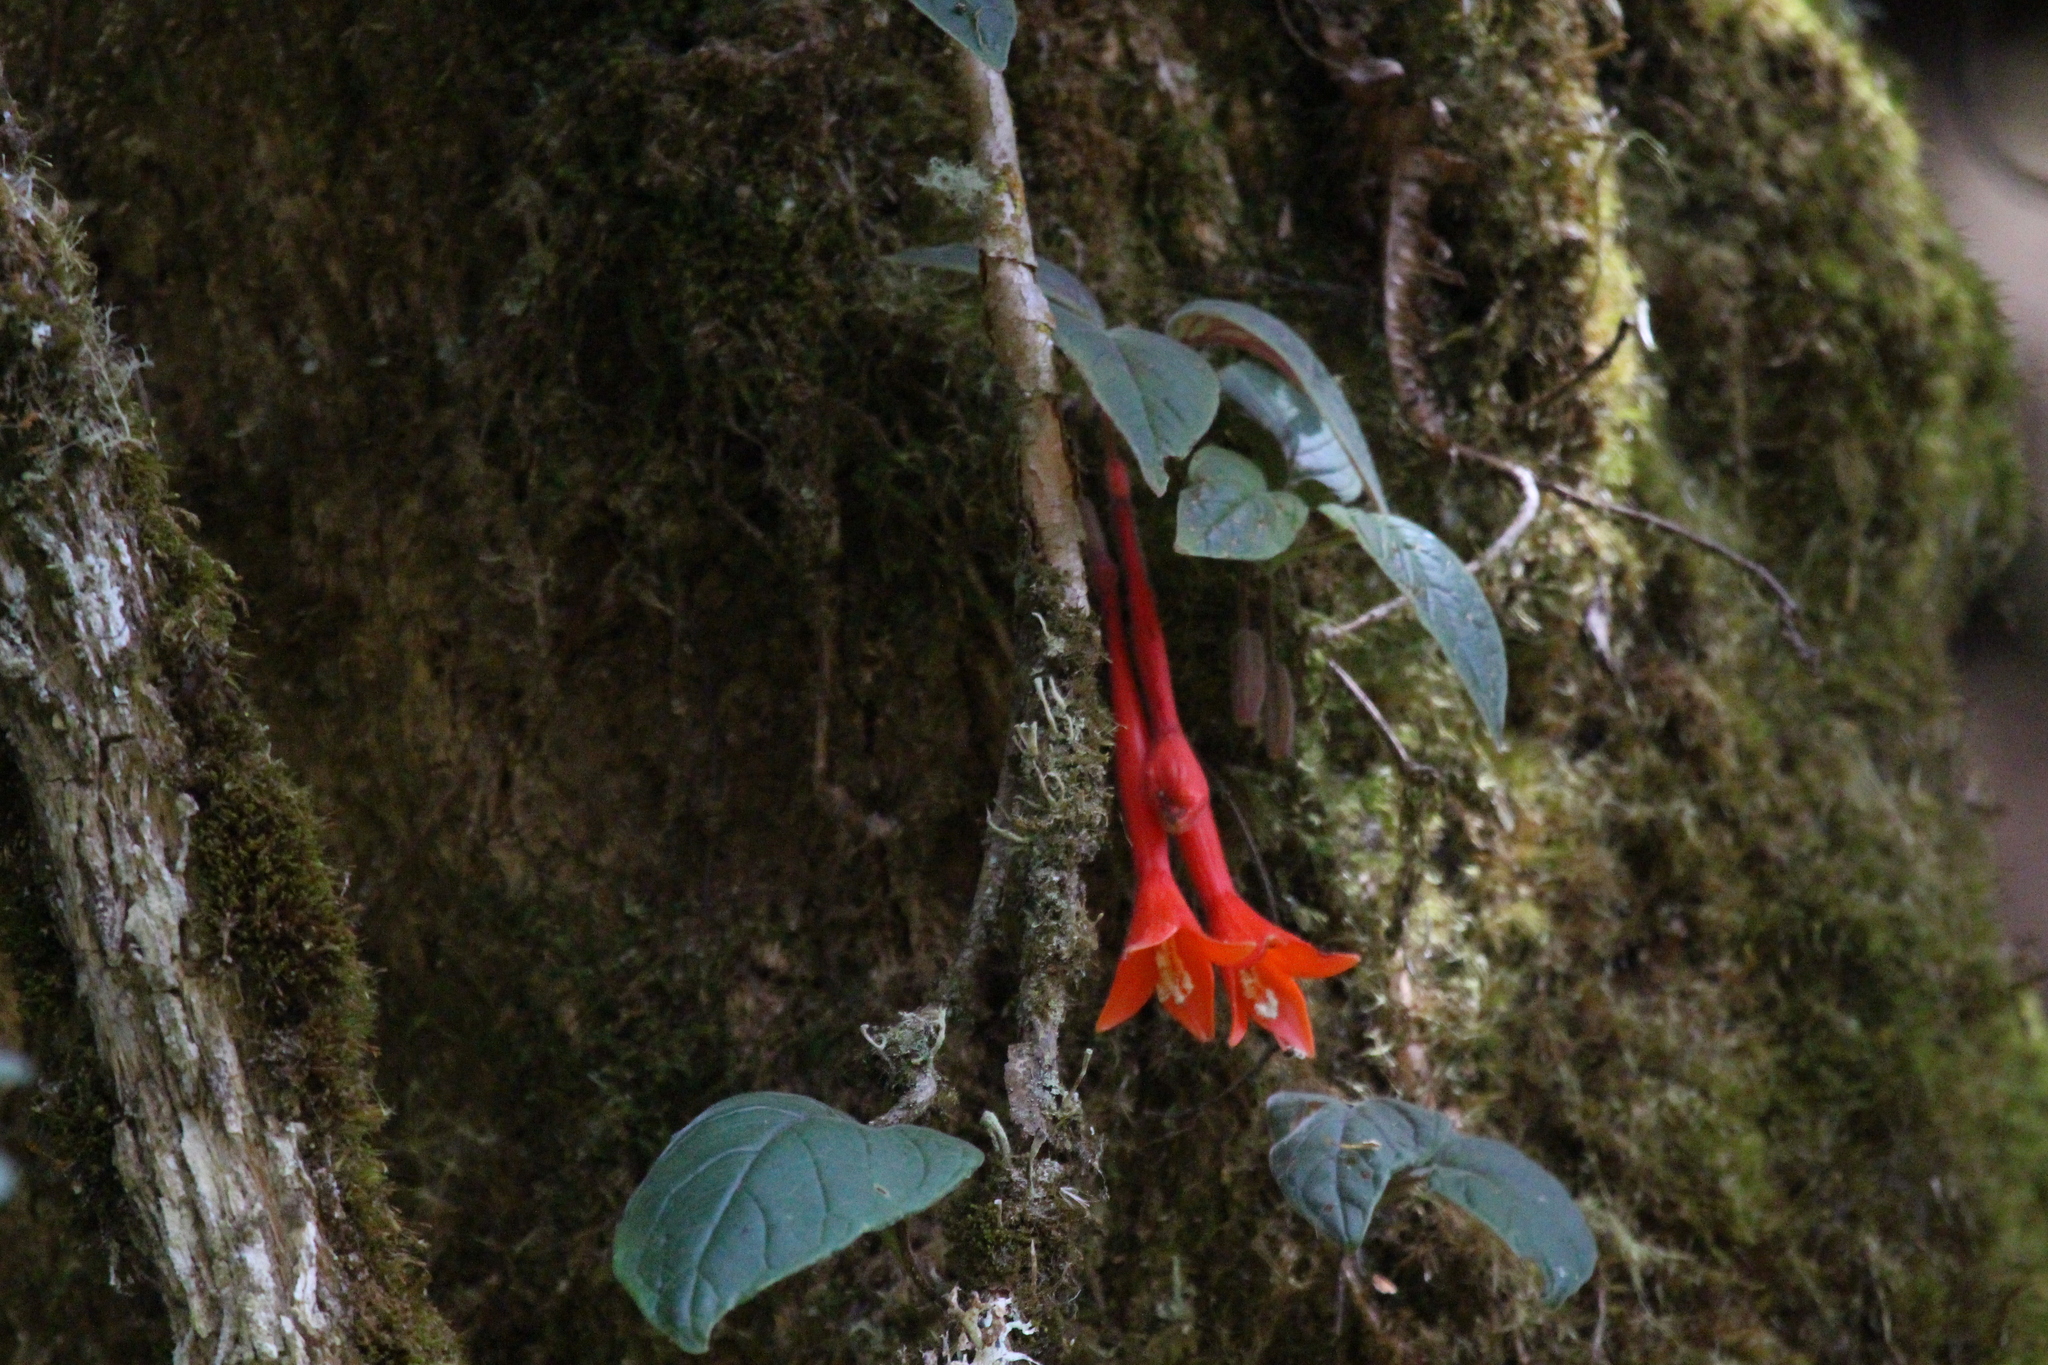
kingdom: Plantae
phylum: Tracheophyta
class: Magnoliopsida
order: Myrtales
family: Onagraceae
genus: Fuchsia
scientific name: Fuchsia apetala
